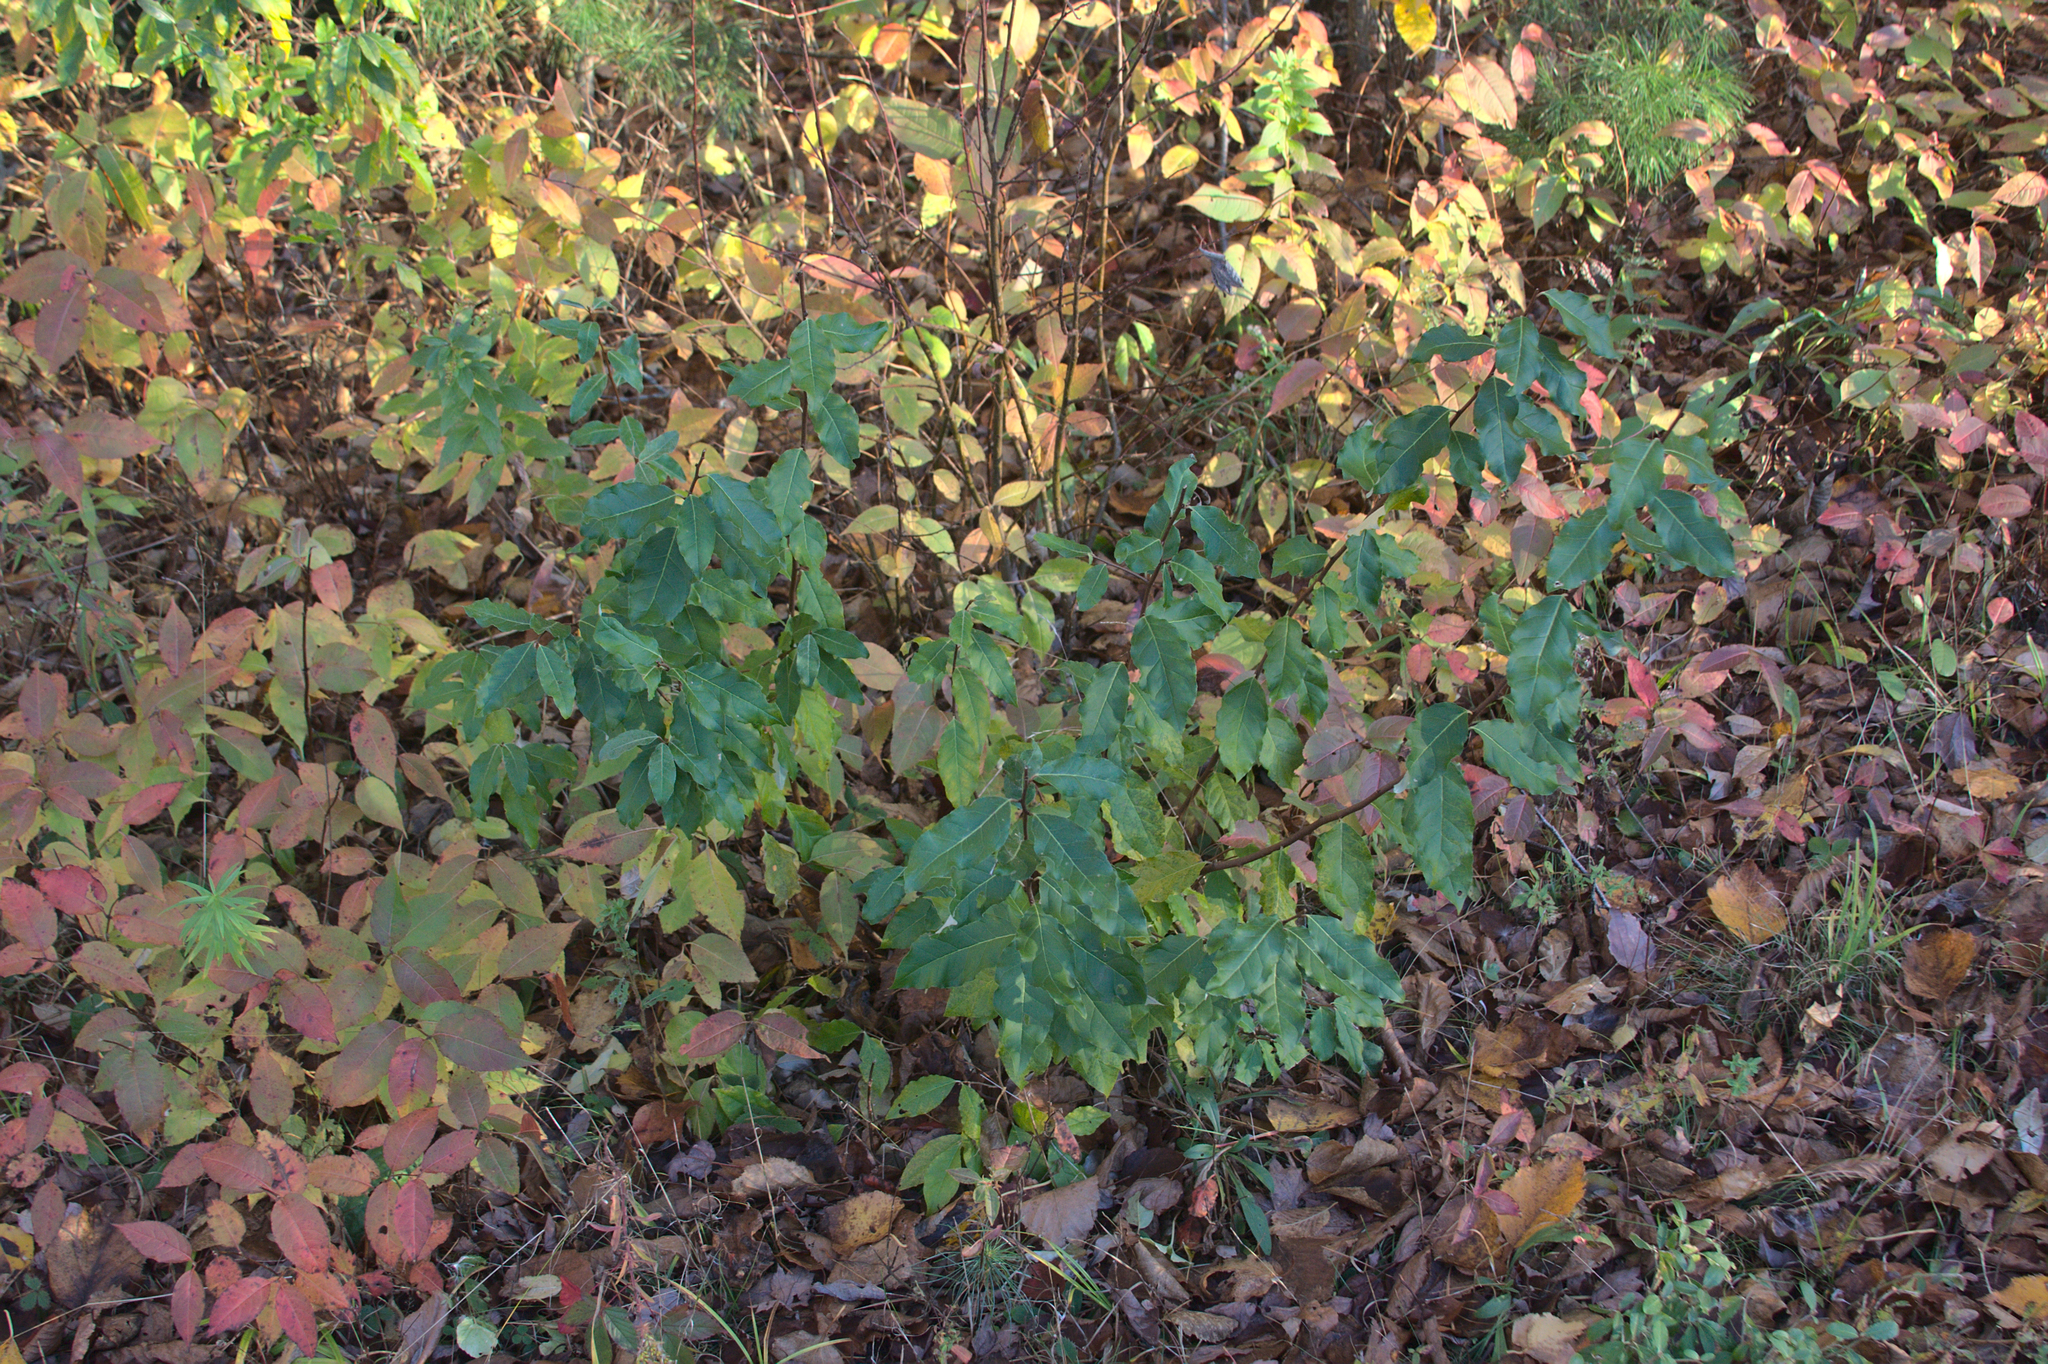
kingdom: Plantae
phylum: Tracheophyta
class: Magnoliopsida
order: Rosales
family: Elaeagnaceae
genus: Elaeagnus
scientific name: Elaeagnus umbellata
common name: Autumn olive
